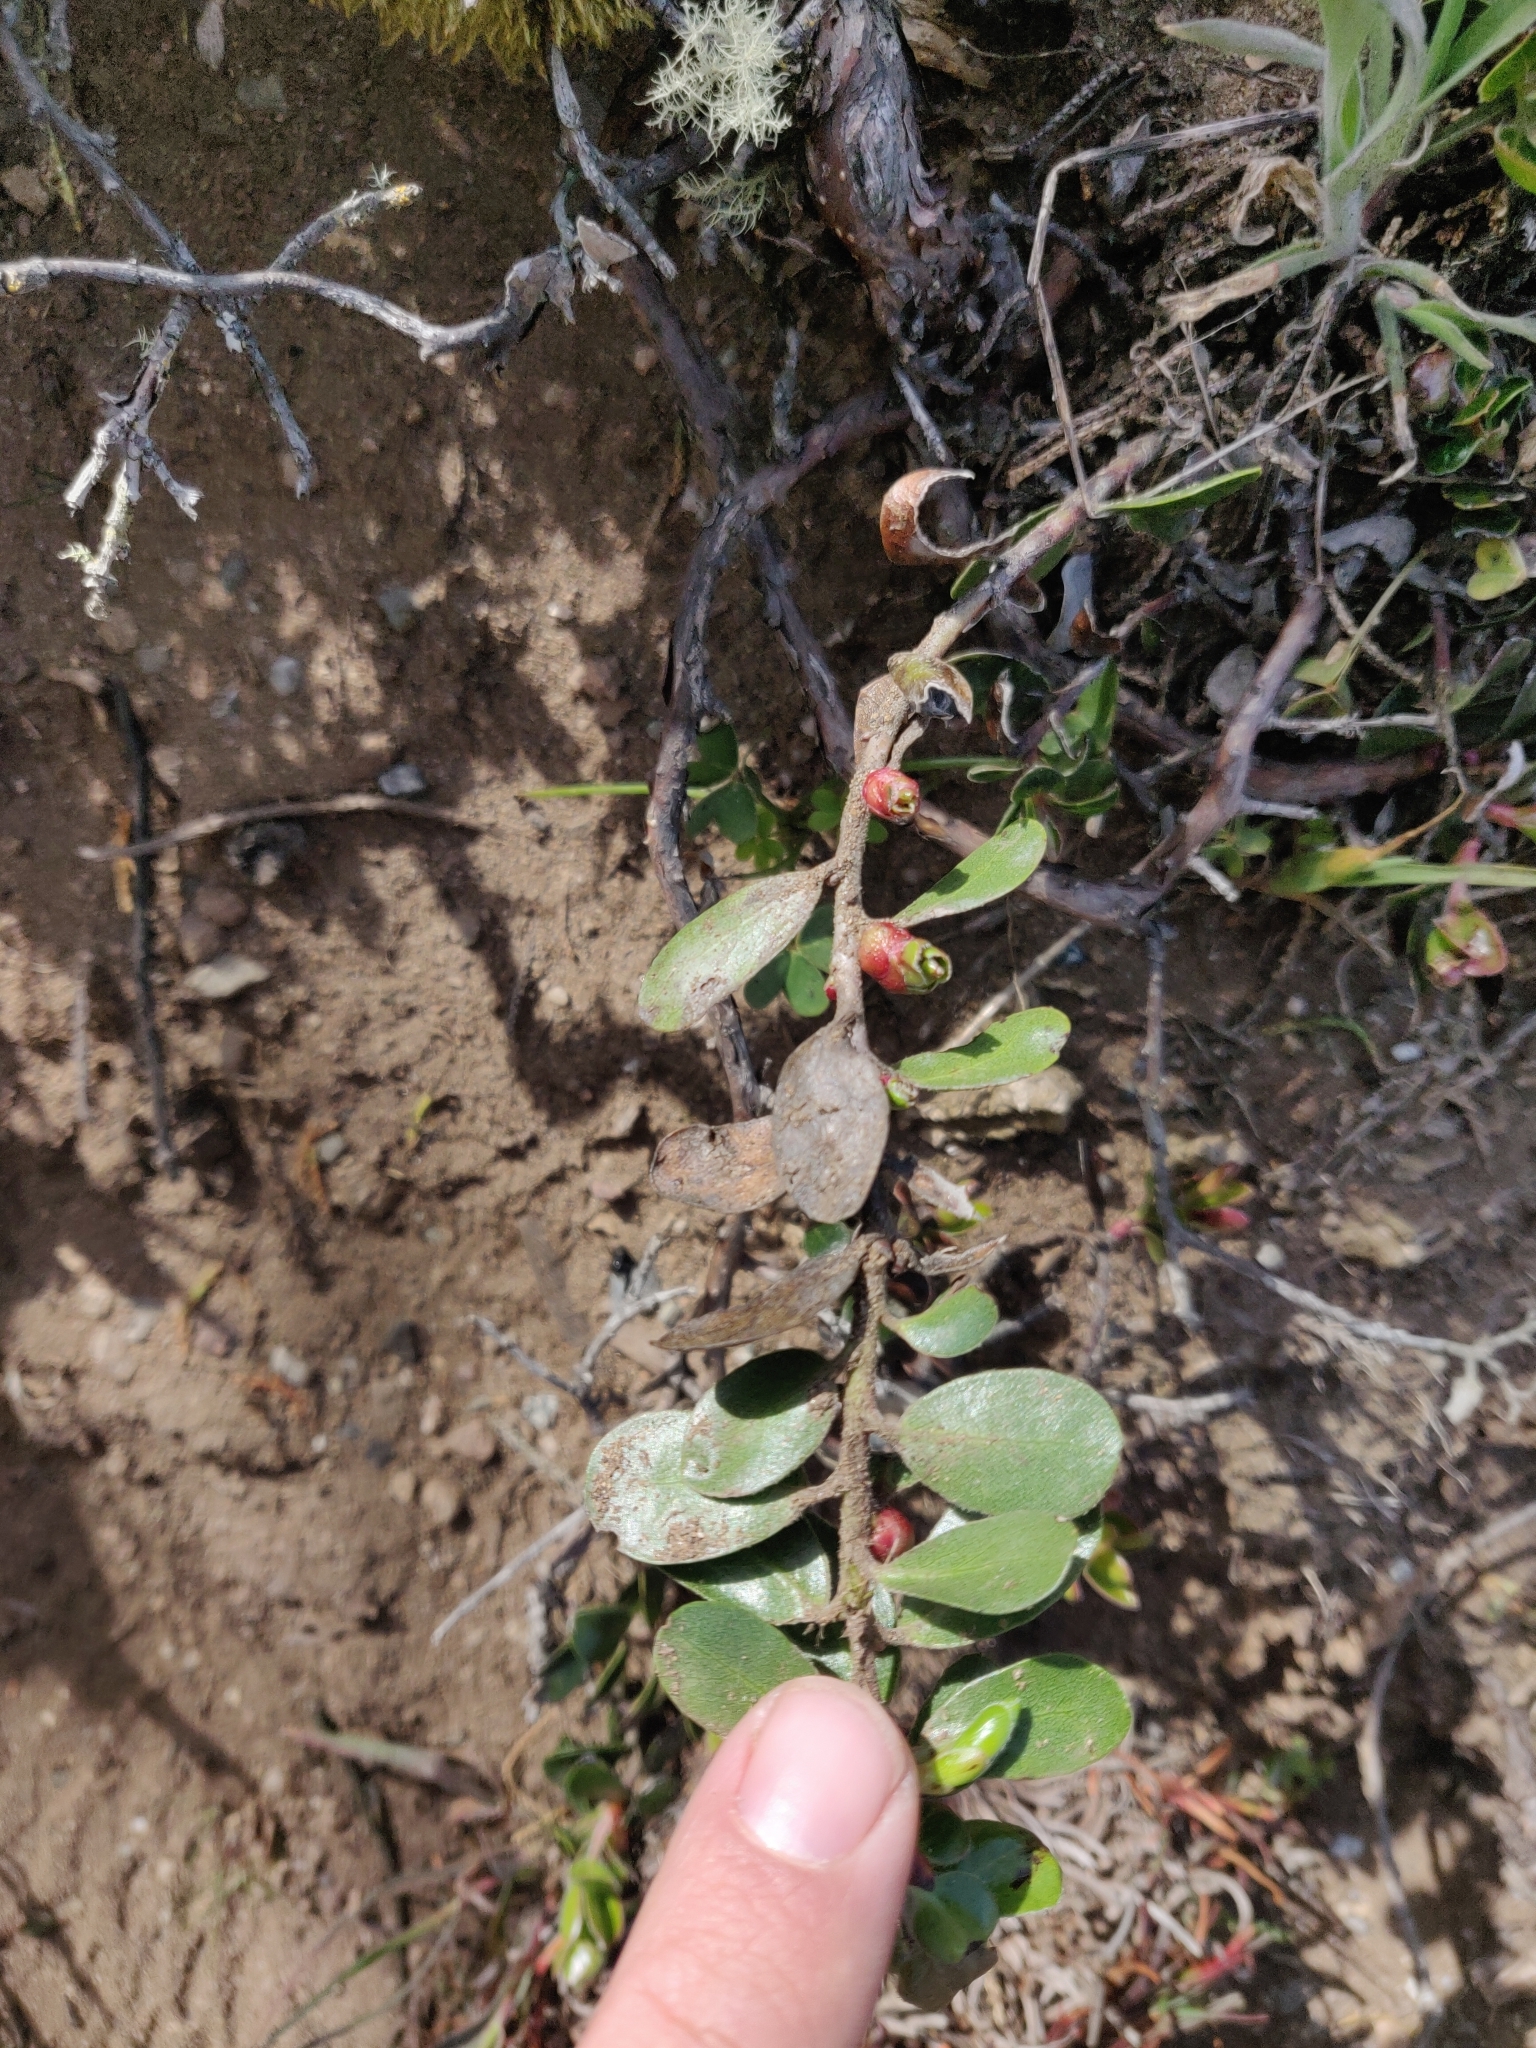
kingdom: Plantae
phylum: Tracheophyta
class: Magnoliopsida
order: Ericales
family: Ericaceae
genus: Arctostaphylos
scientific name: Arctostaphylos uva-ursi
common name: Bearberry
